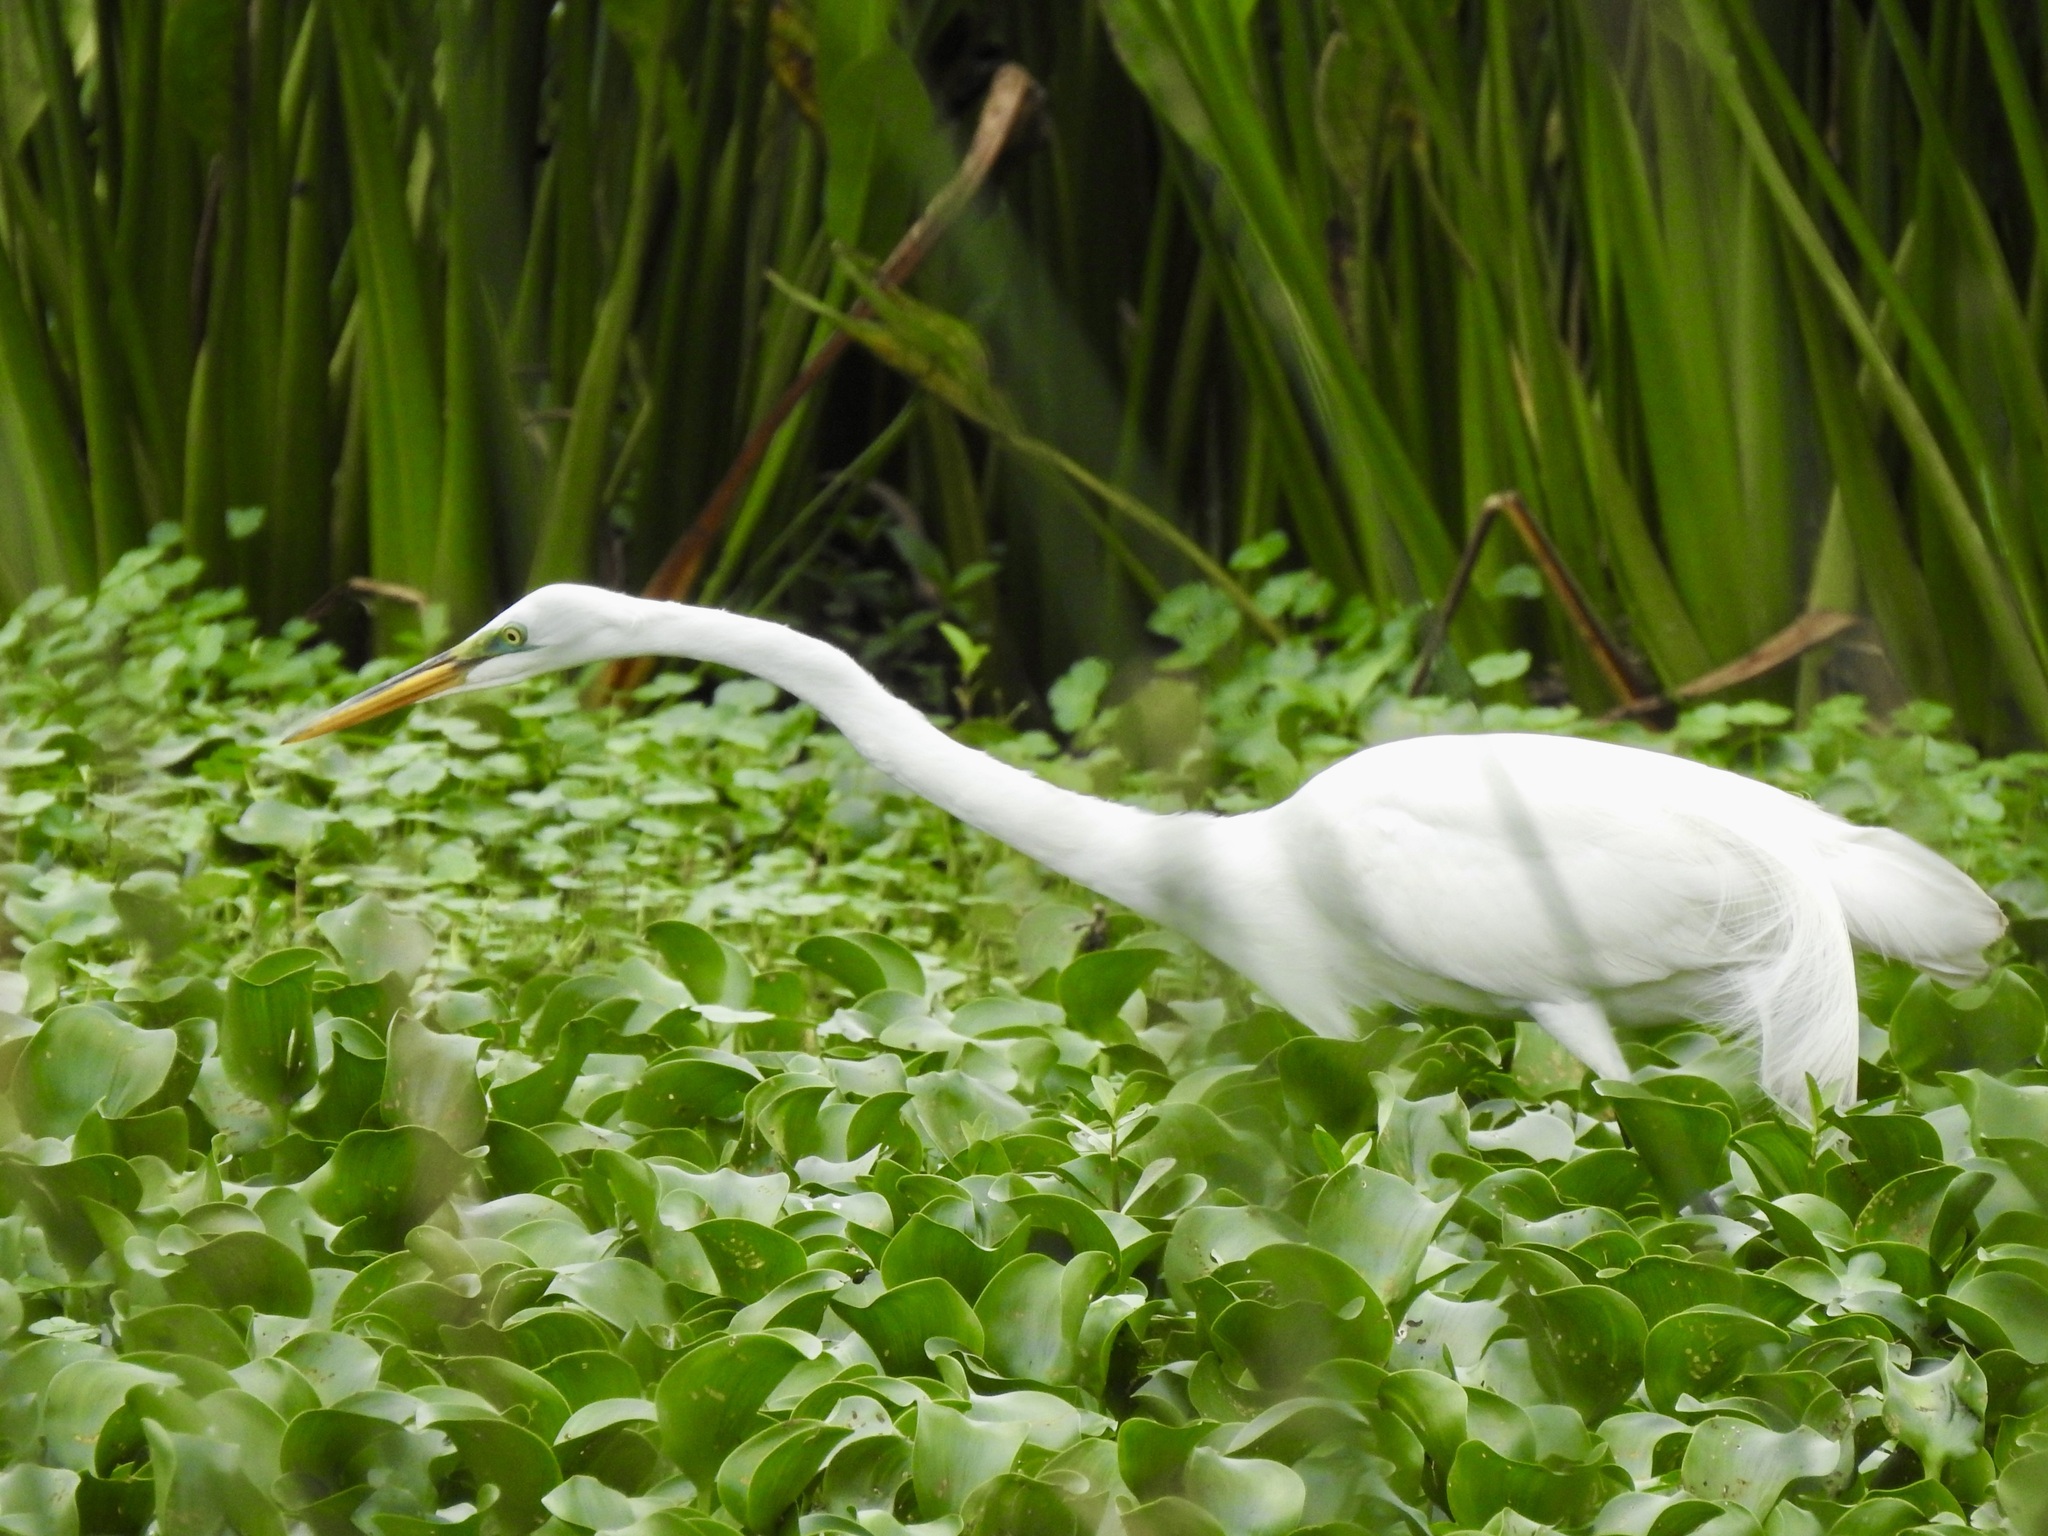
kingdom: Animalia
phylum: Chordata
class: Aves
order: Pelecaniformes
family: Ardeidae
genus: Ardea
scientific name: Ardea alba
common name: Great egret
